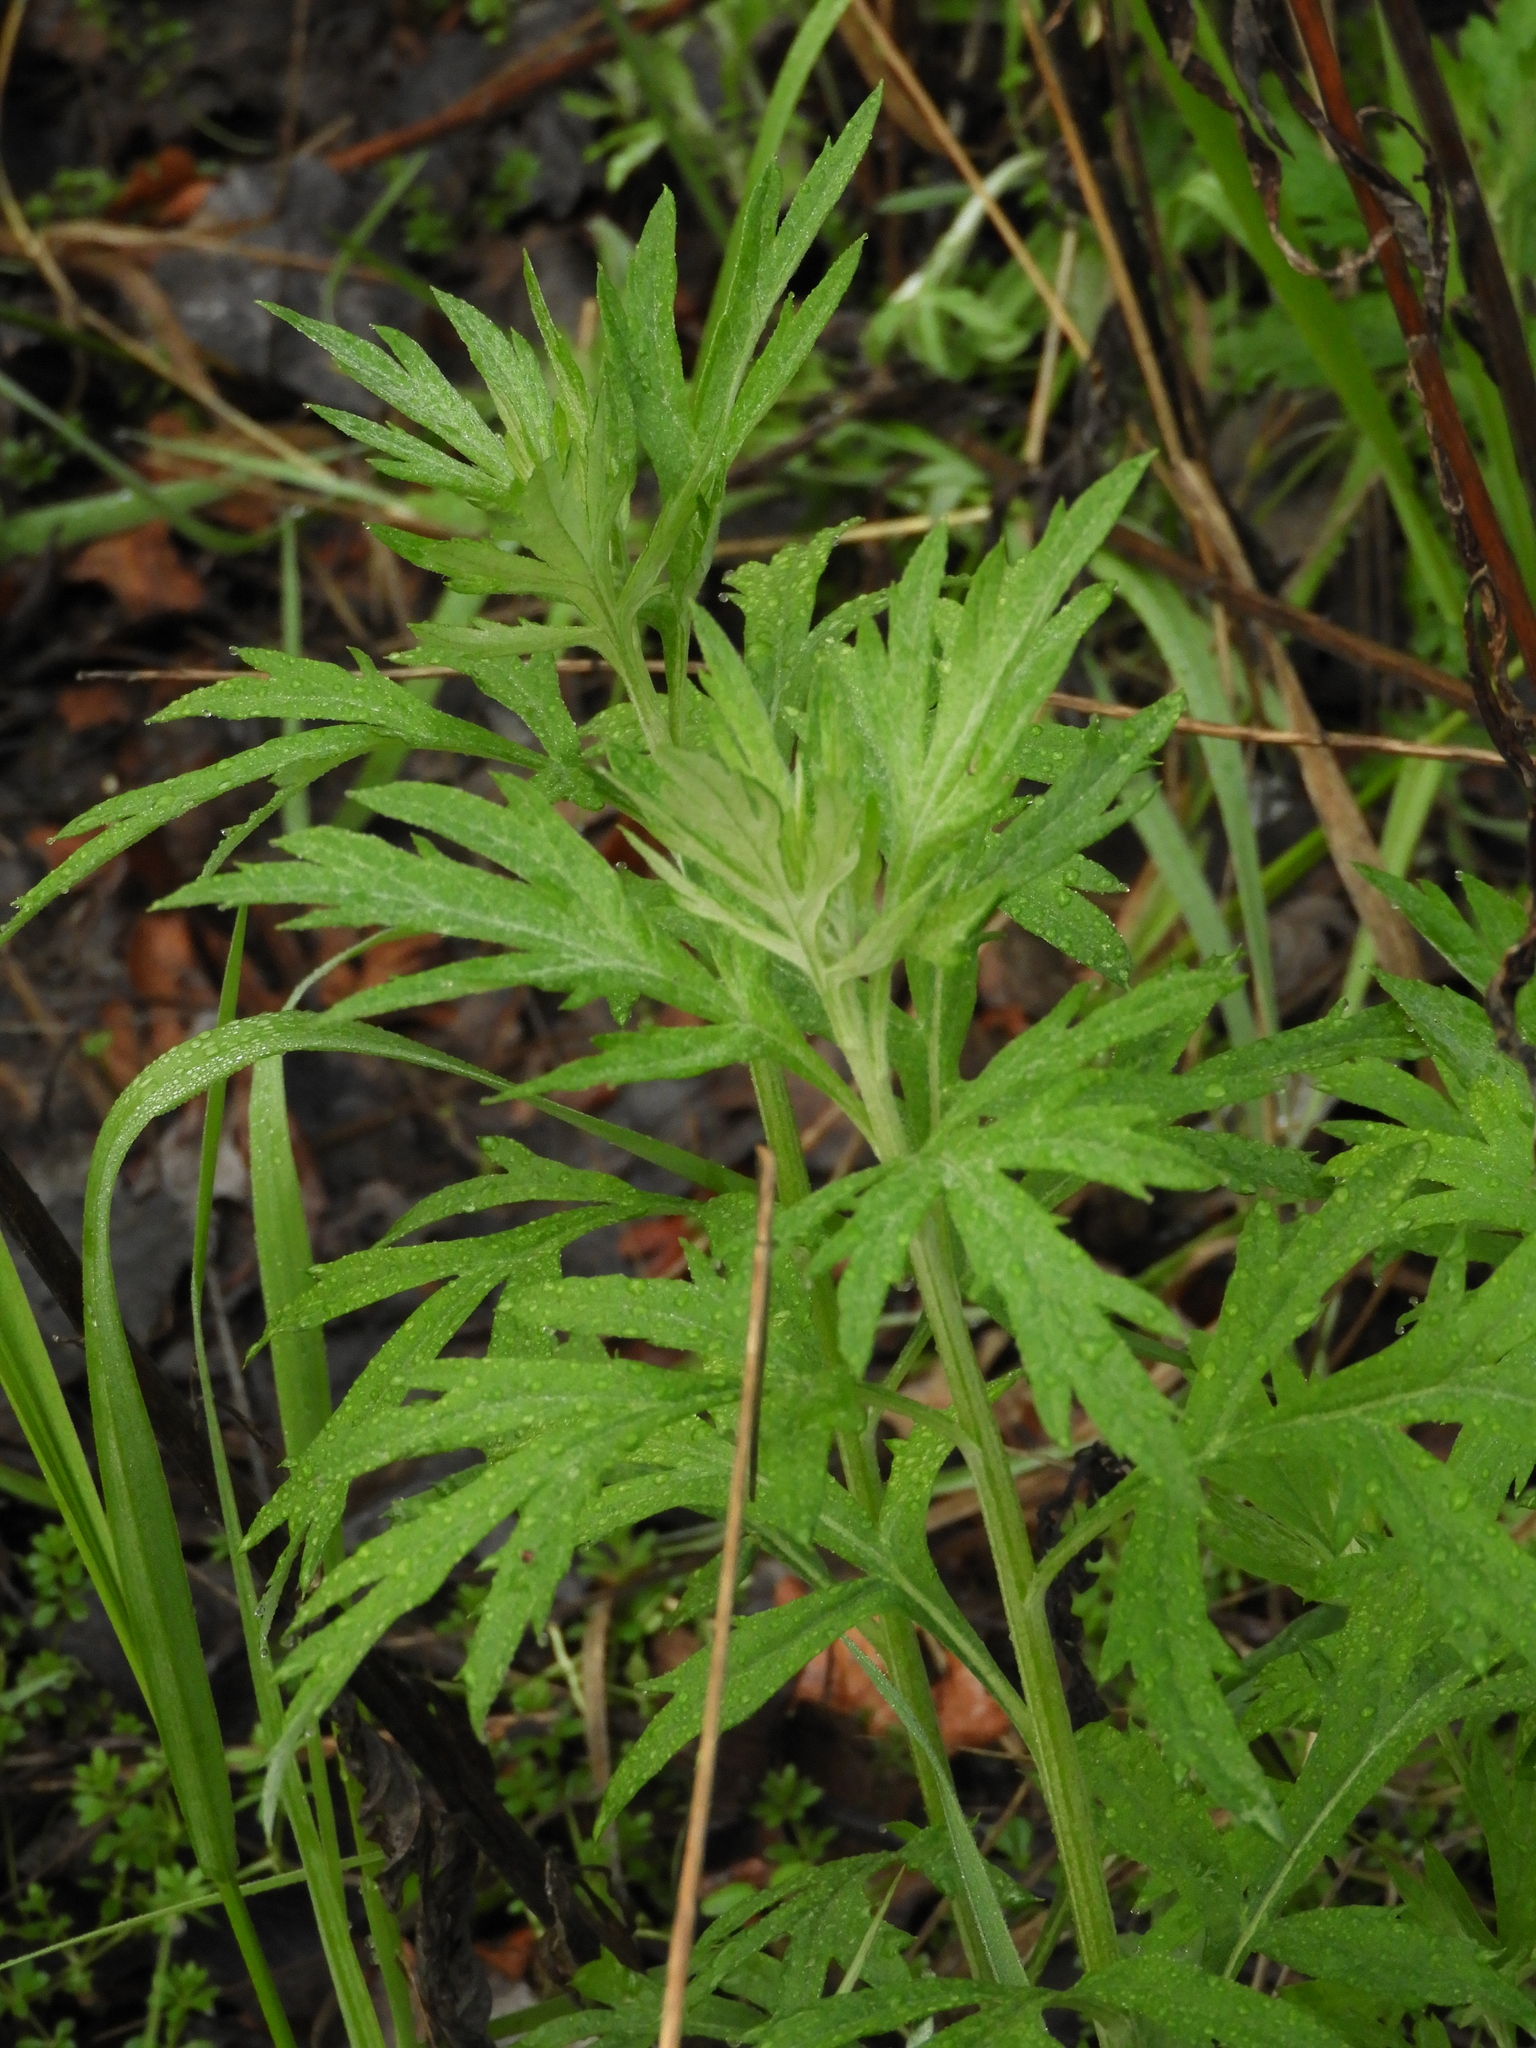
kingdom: Plantae
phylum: Tracheophyta
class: Magnoliopsida
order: Asterales
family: Asteraceae
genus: Artemisia
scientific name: Artemisia douglasiana
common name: Northwest mugwort
